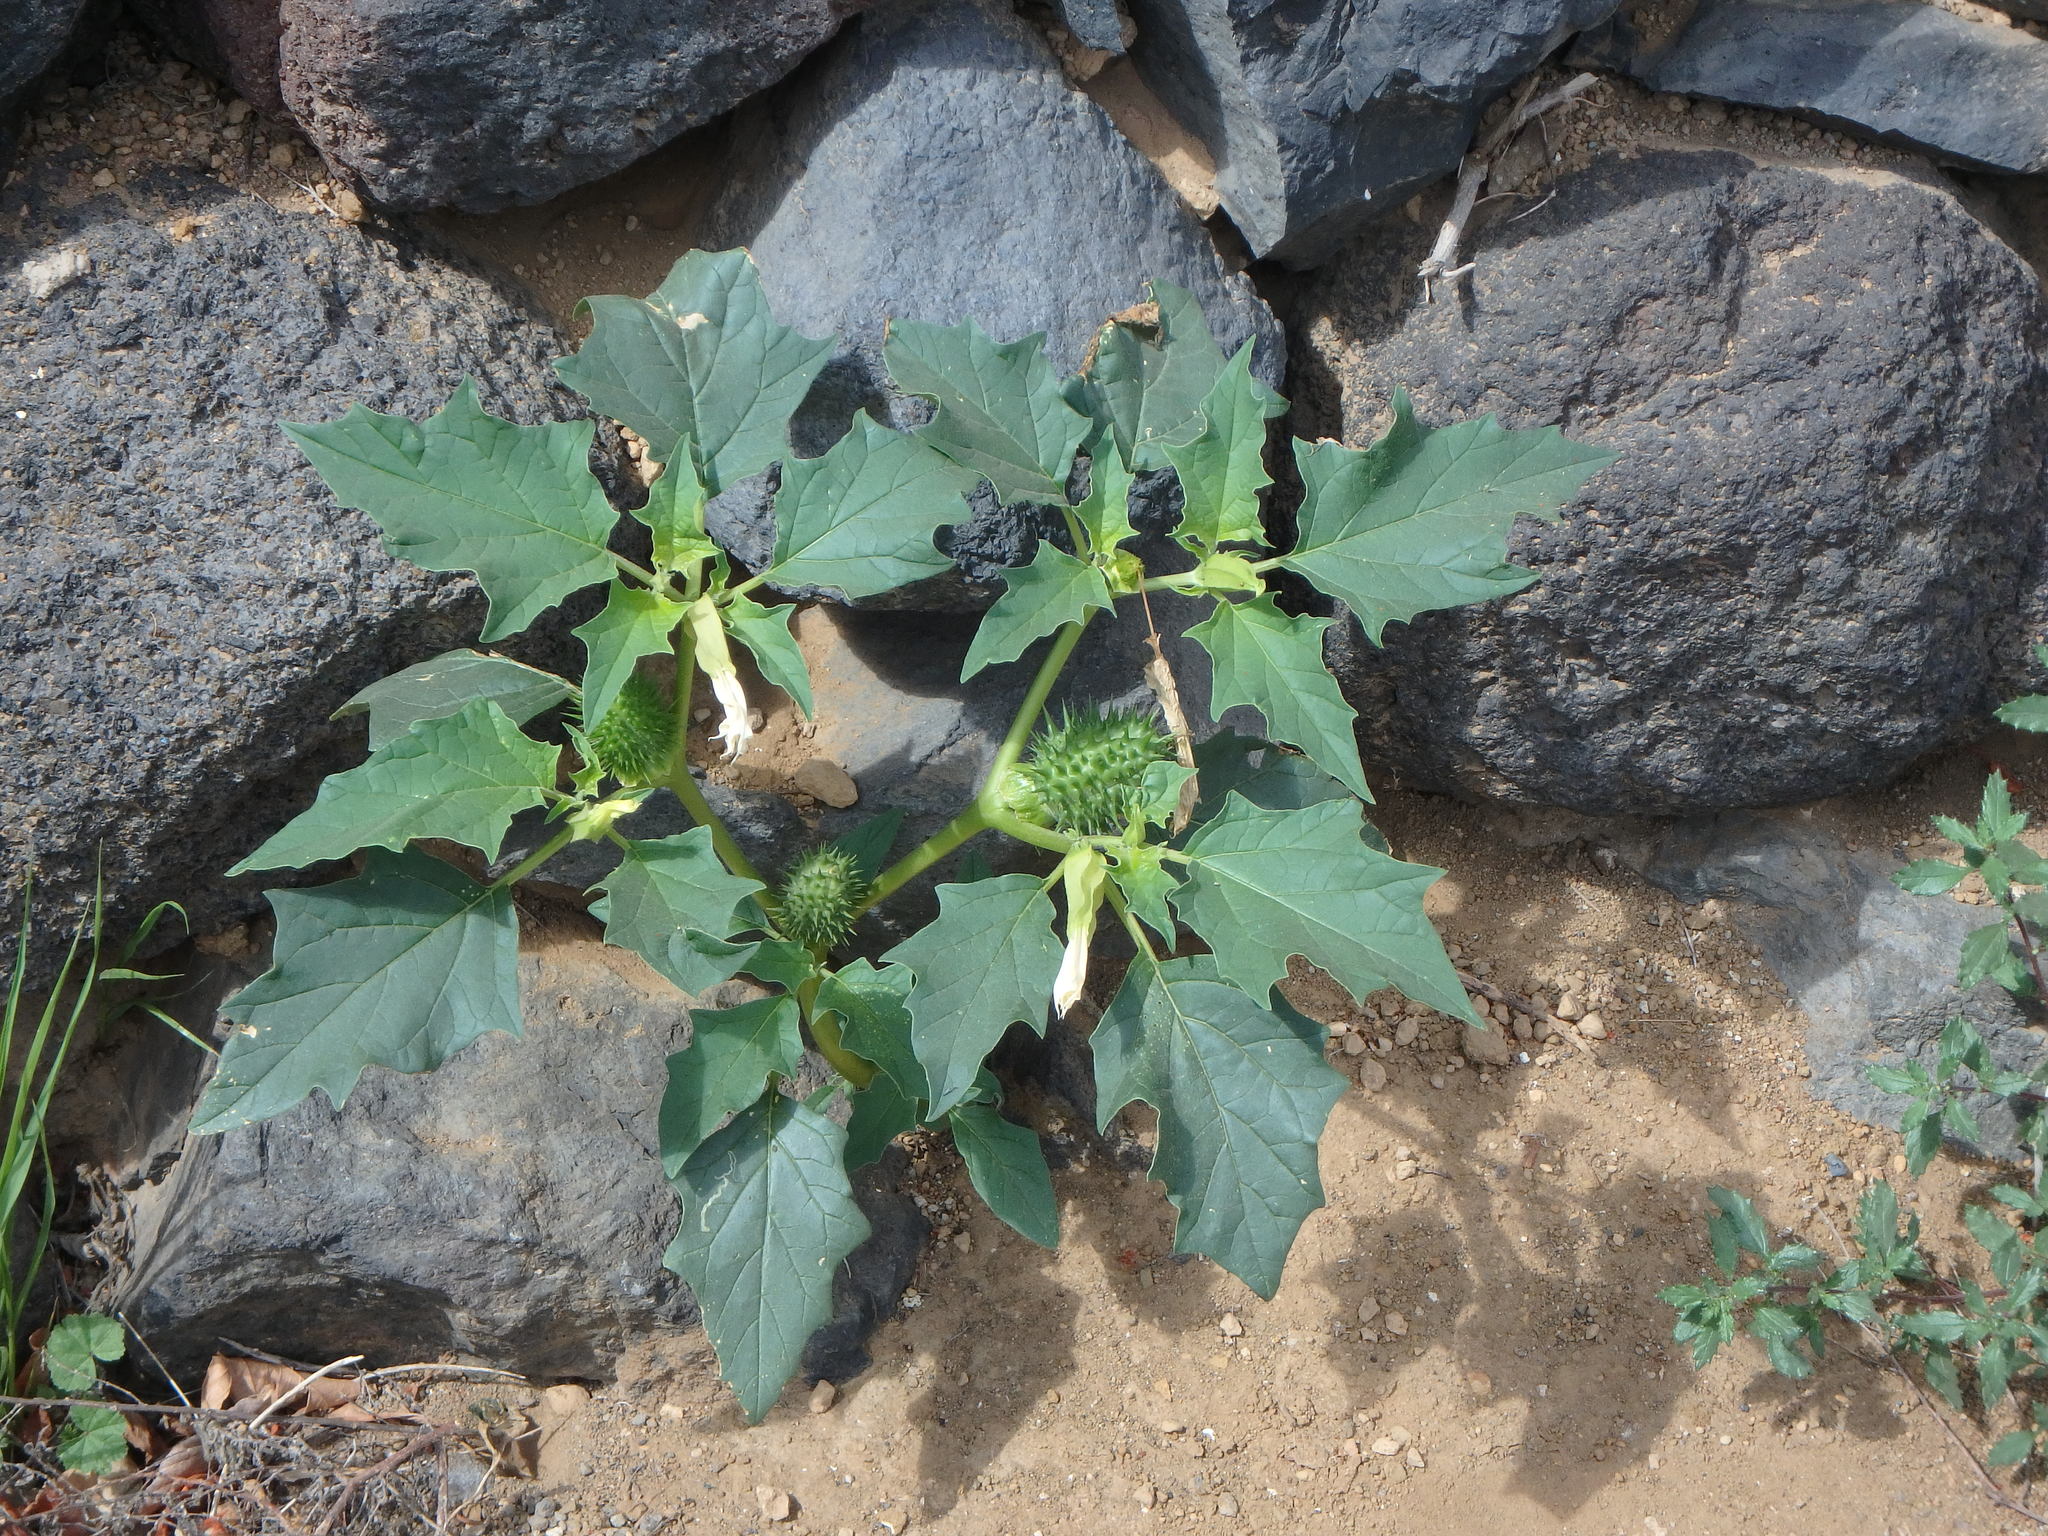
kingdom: Plantae
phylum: Tracheophyta
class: Magnoliopsida
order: Solanales
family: Solanaceae
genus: Datura
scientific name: Datura stramonium
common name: Thorn-apple
